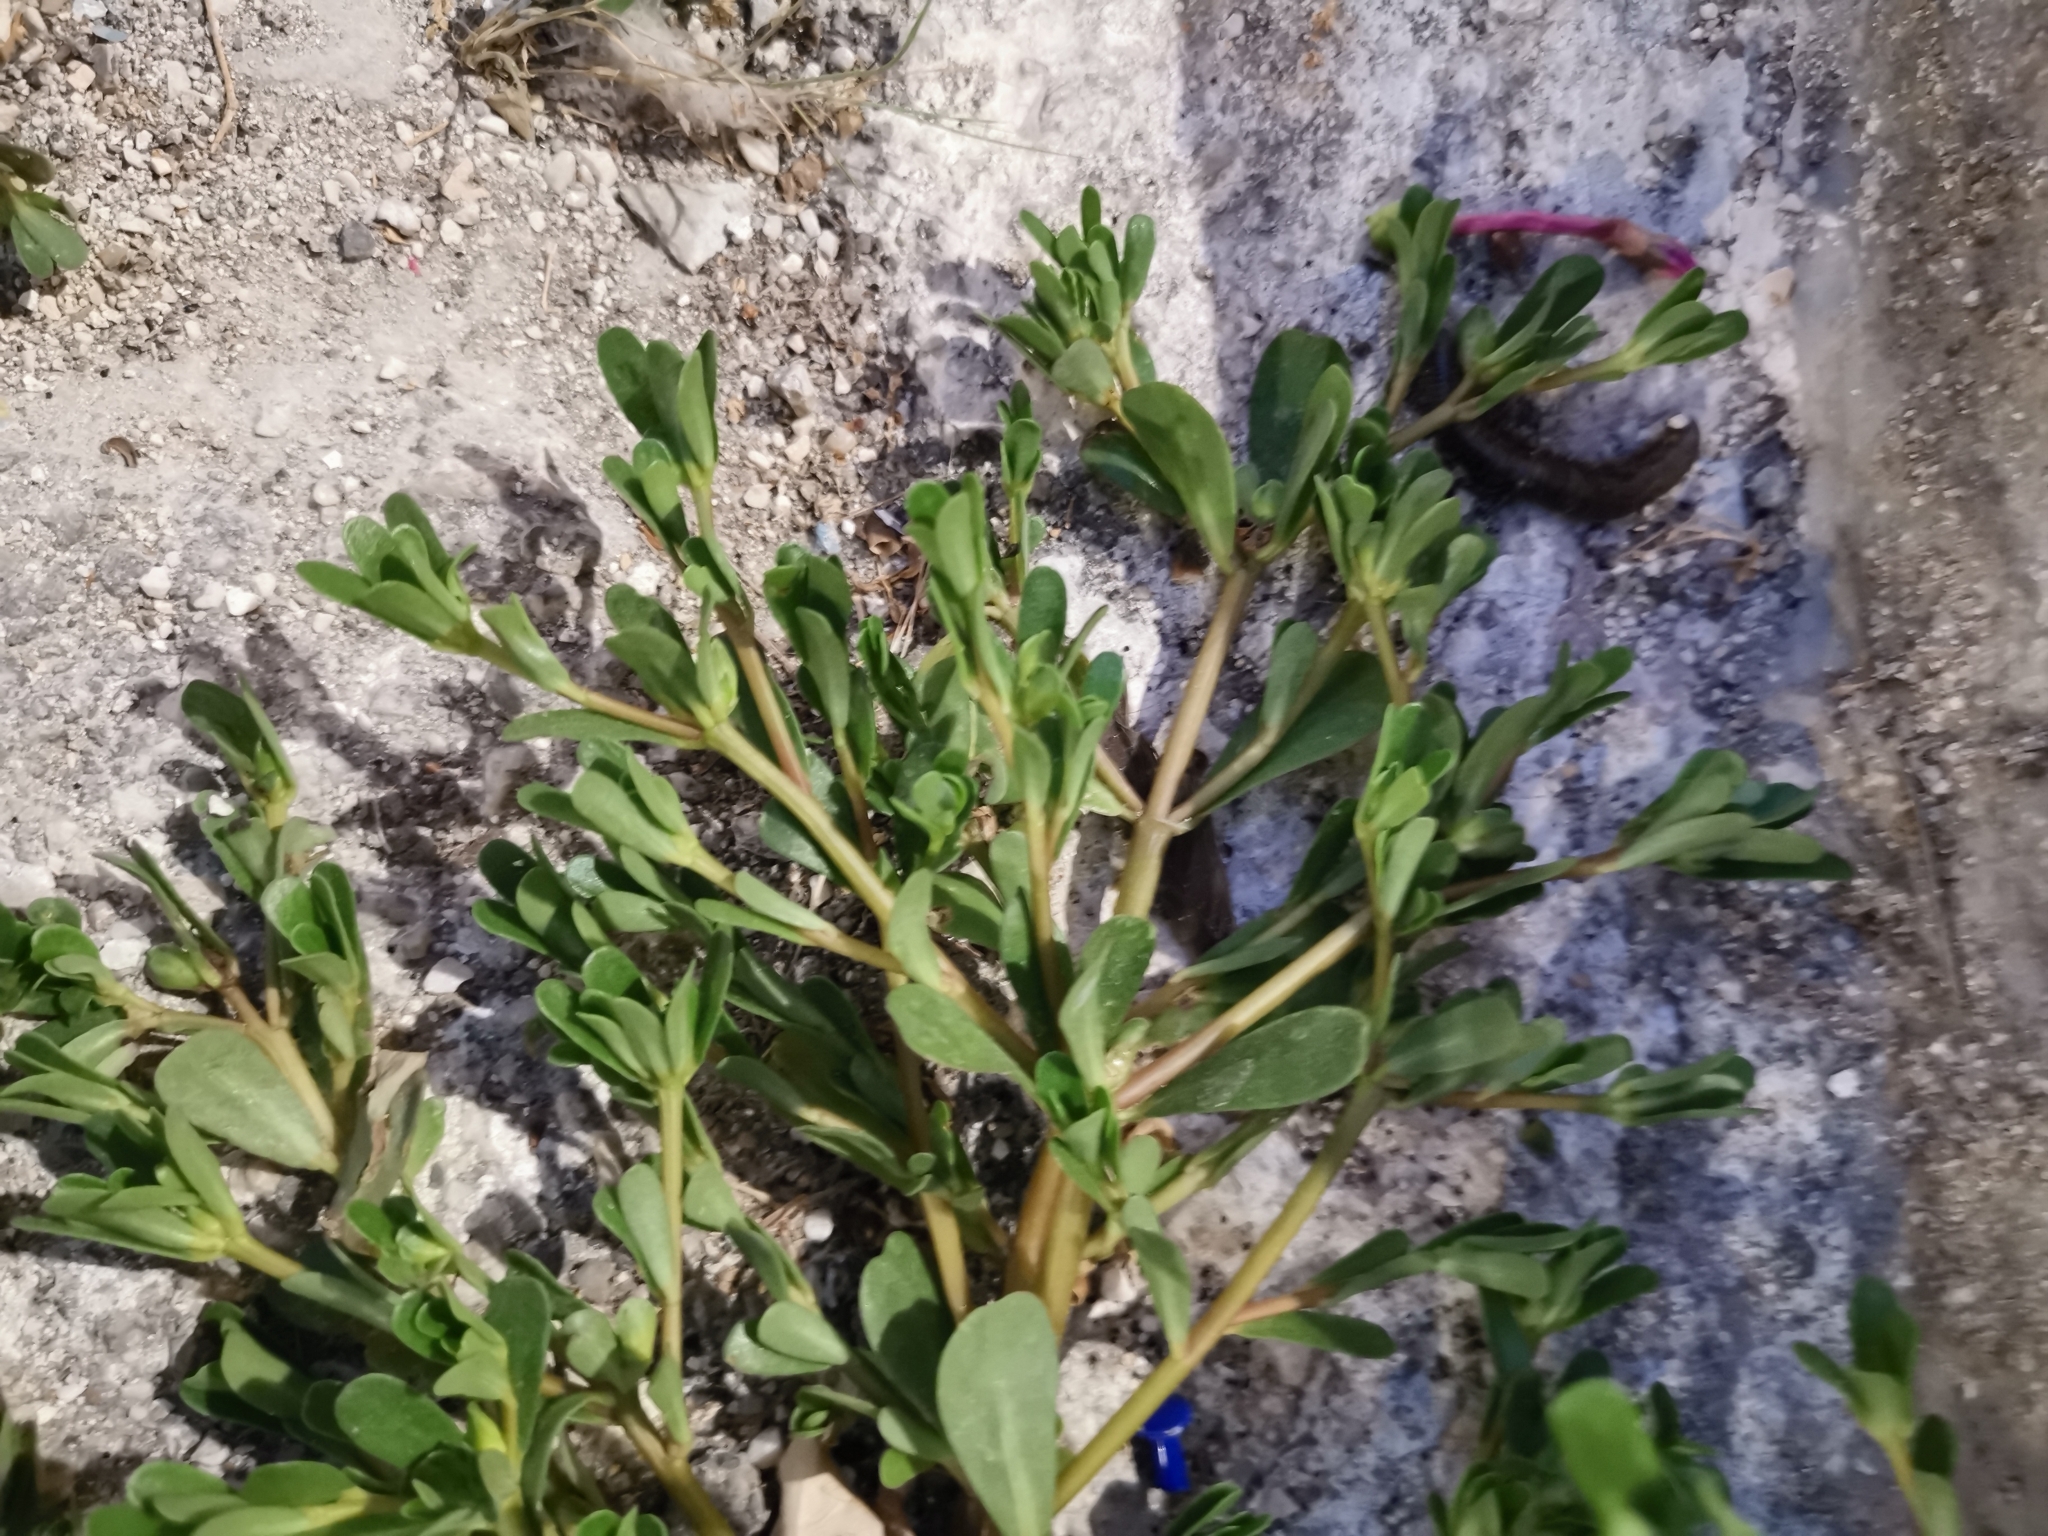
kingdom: Plantae
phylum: Tracheophyta
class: Magnoliopsida
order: Caryophyllales
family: Portulacaceae
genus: Portulaca
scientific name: Portulaca oleracea
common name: Common purslane
